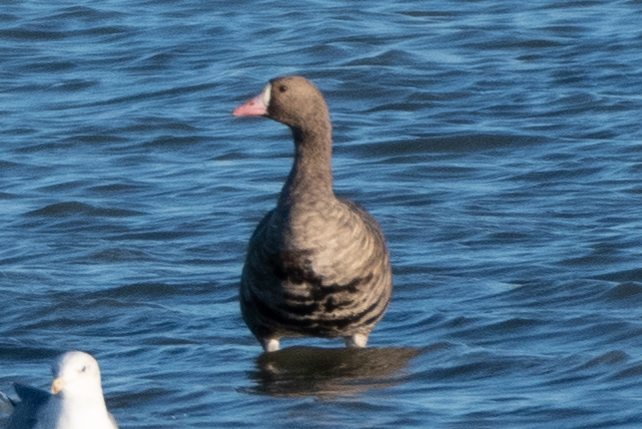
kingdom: Animalia
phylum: Chordata
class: Aves
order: Anseriformes
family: Anatidae
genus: Anser
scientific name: Anser albifrons
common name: Greater white-fronted goose
